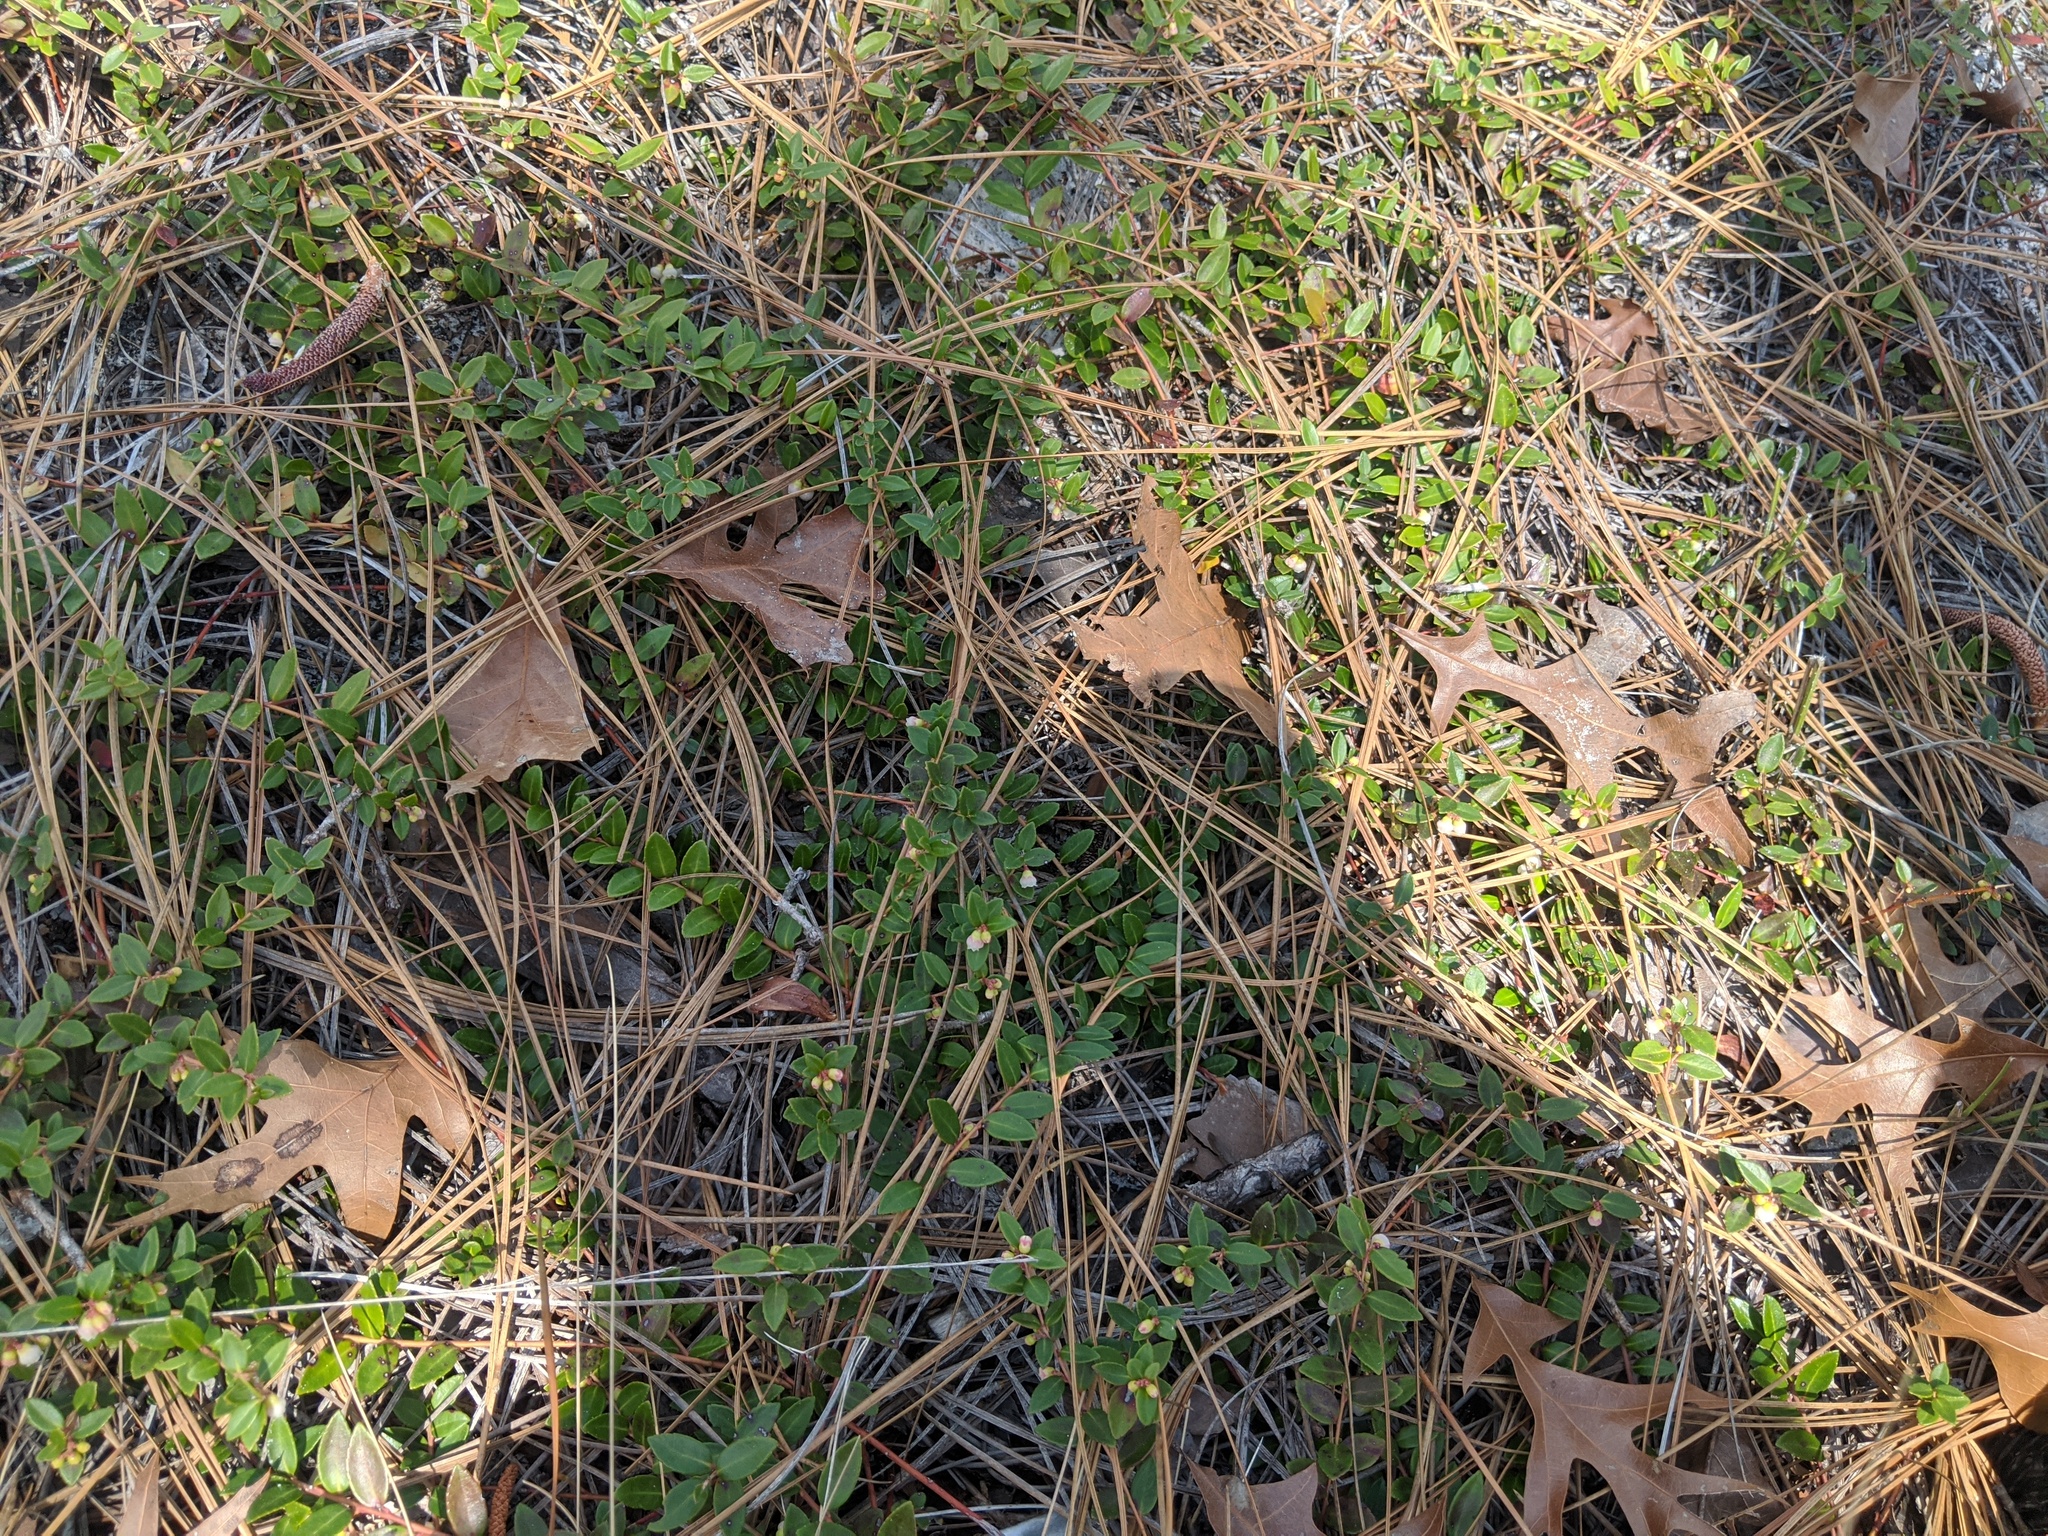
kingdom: Plantae
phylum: Tracheophyta
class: Magnoliopsida
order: Ericales
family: Ericaceae
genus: Vaccinium
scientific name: Vaccinium crassifolium
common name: Creeping blueberry
